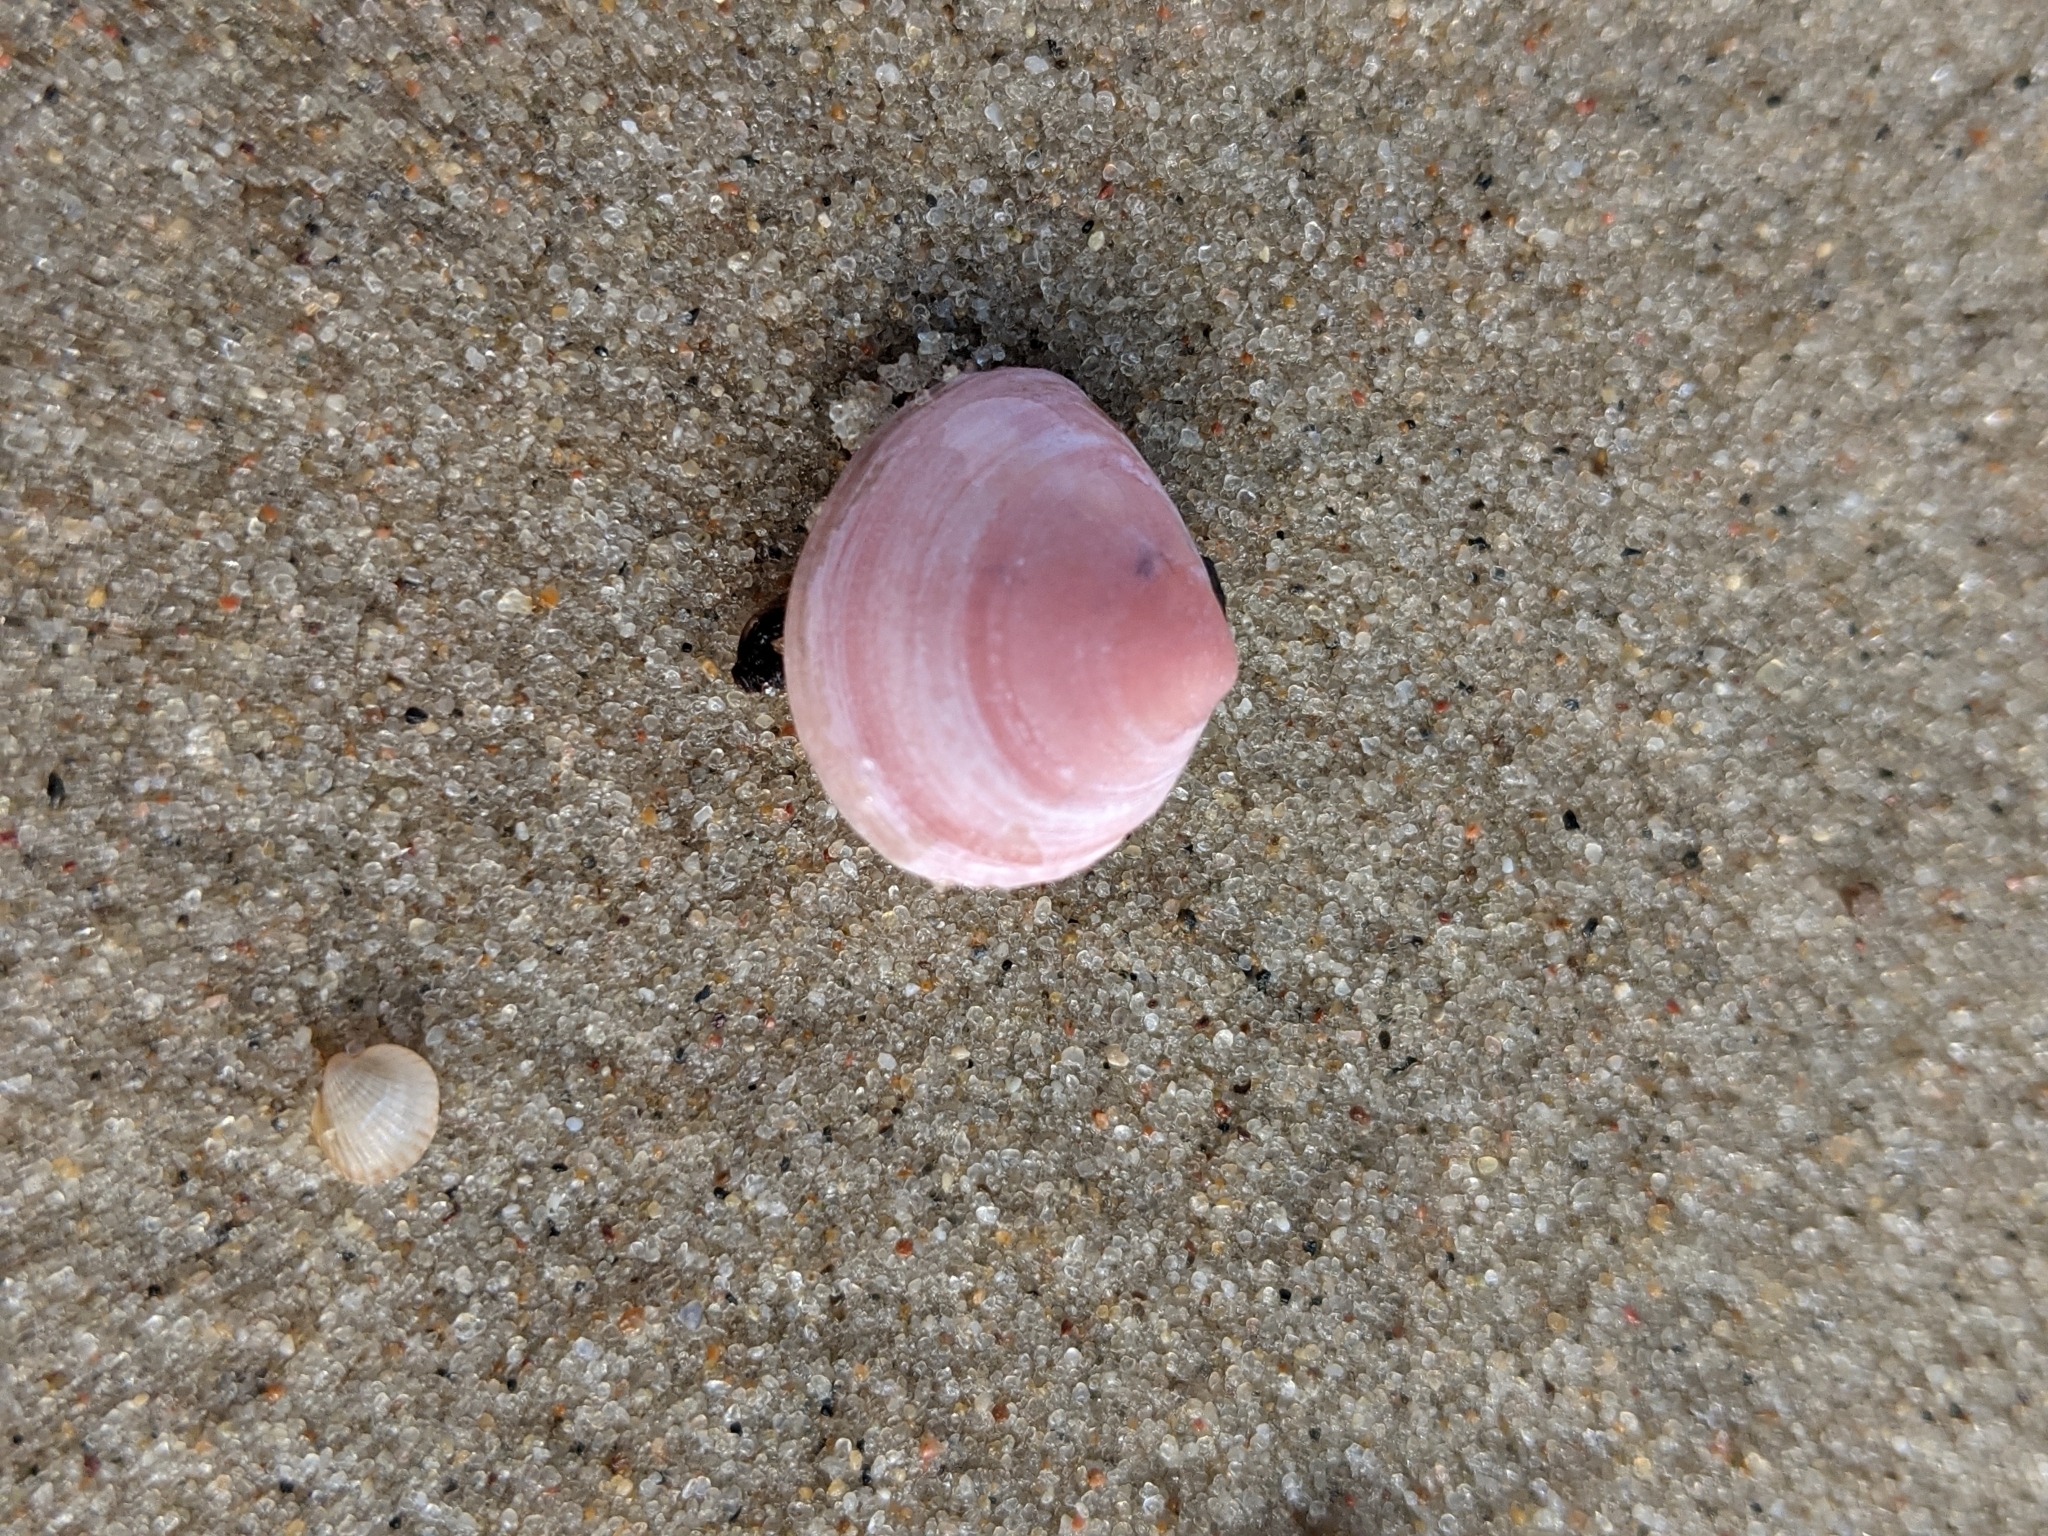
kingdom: Animalia
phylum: Mollusca
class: Bivalvia
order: Cardiida
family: Tellinidae
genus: Macoma
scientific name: Macoma balthica
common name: Baltic tellin
